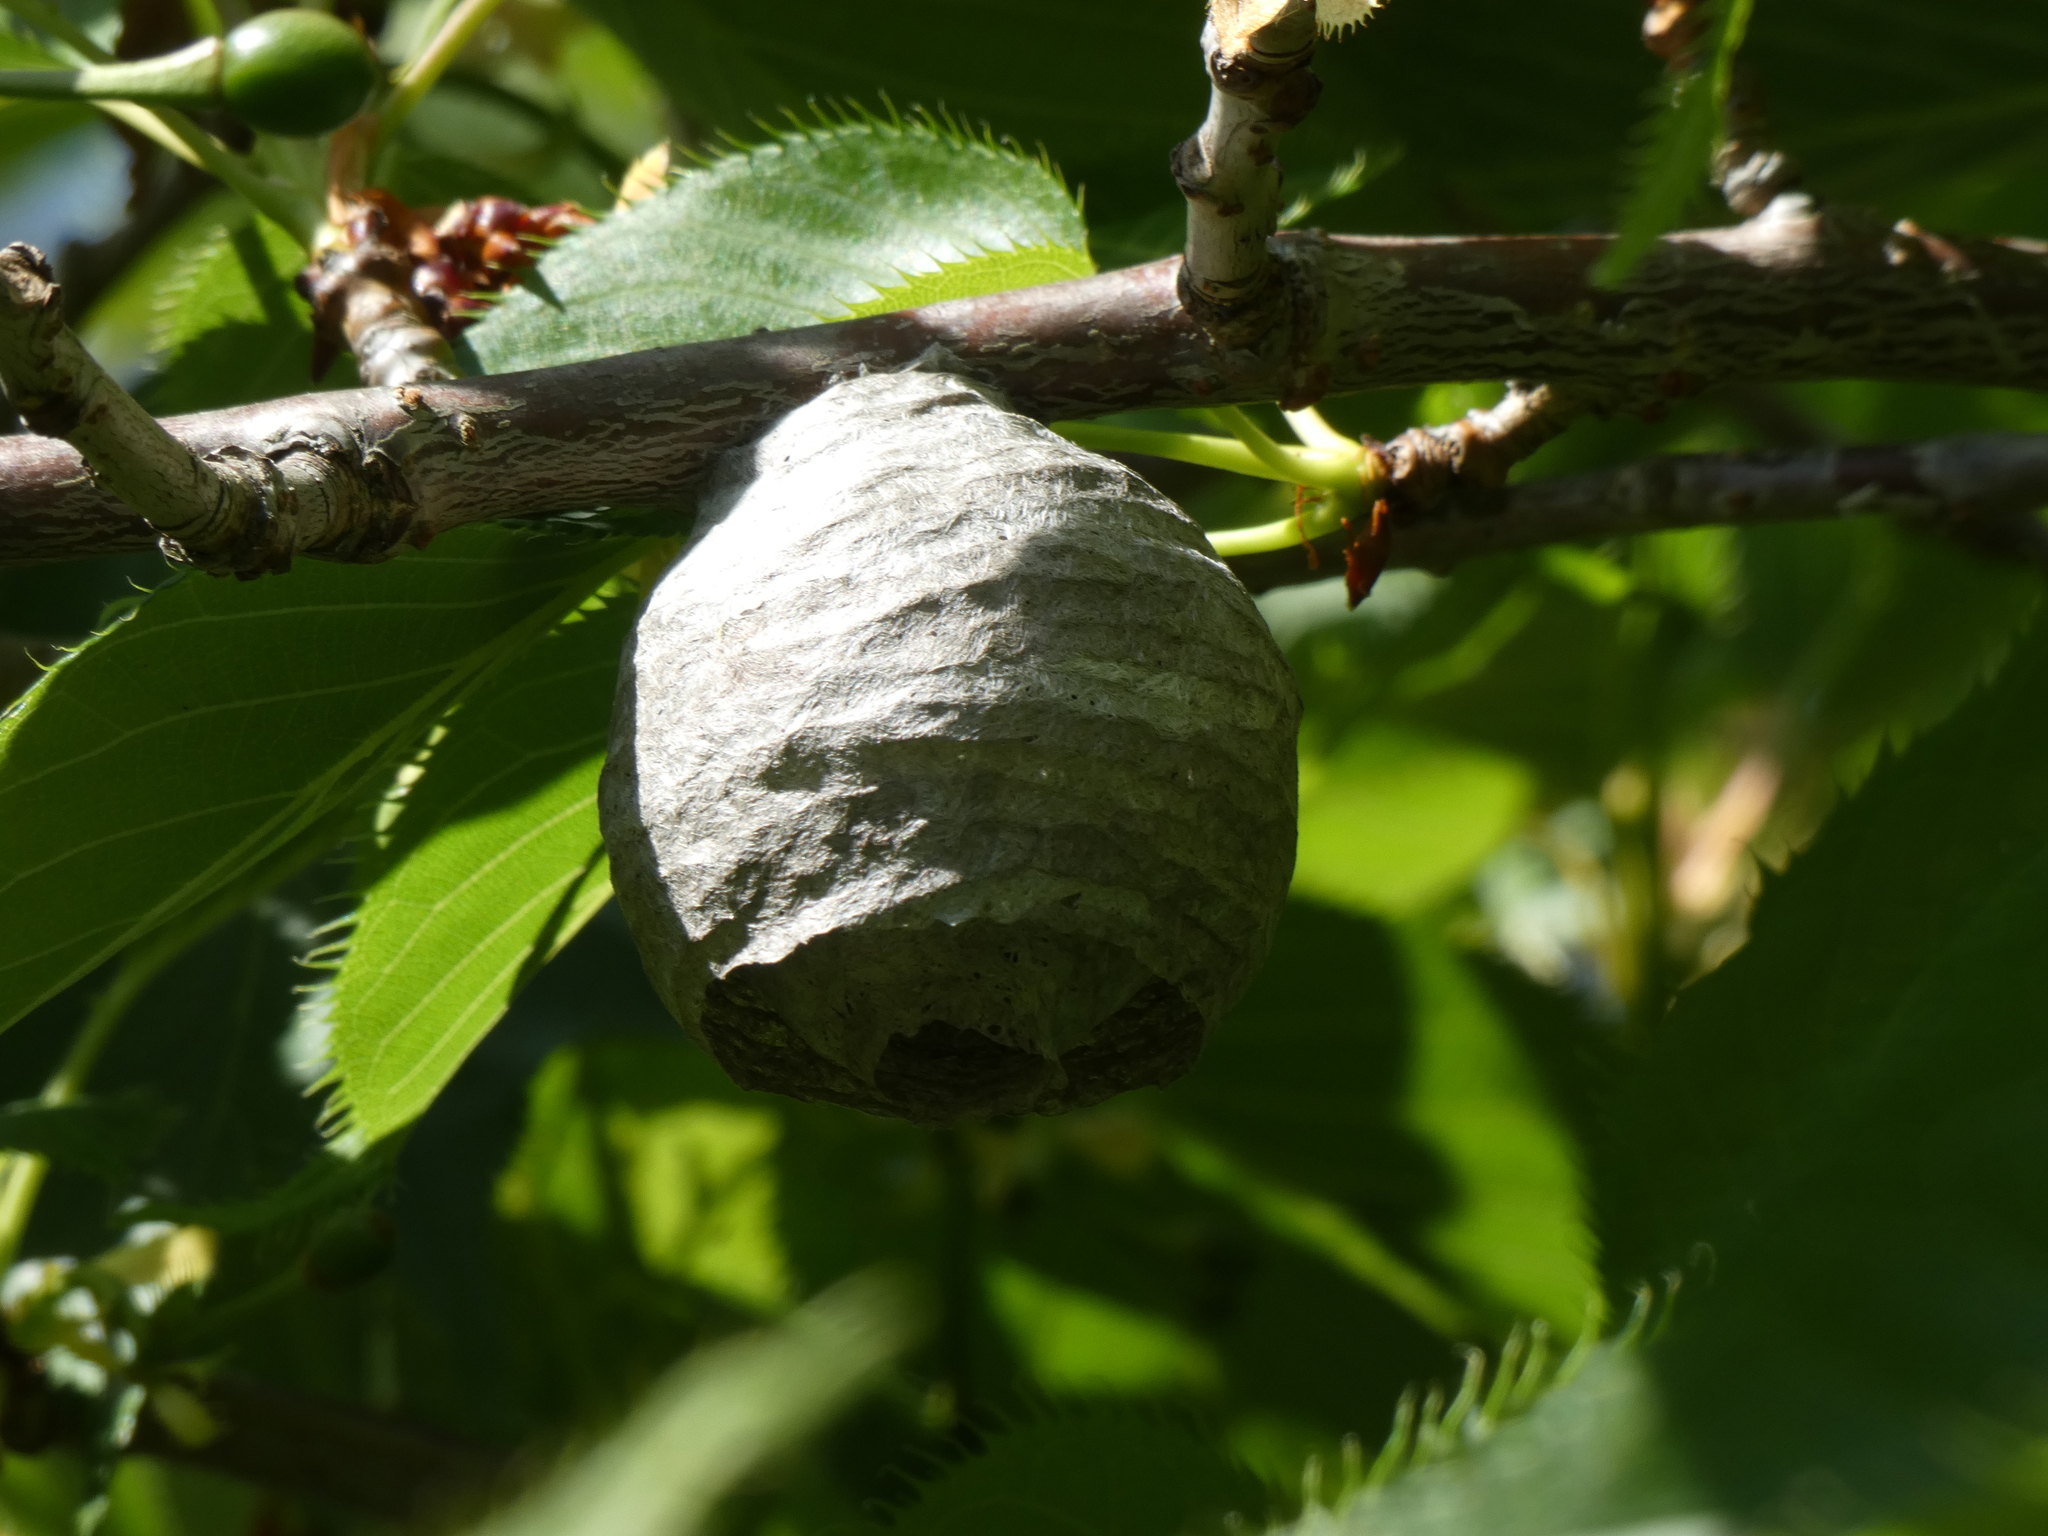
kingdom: Animalia
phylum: Arthropoda
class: Insecta
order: Hymenoptera
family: Vespidae
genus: Dolichovespula
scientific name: Dolichovespula
